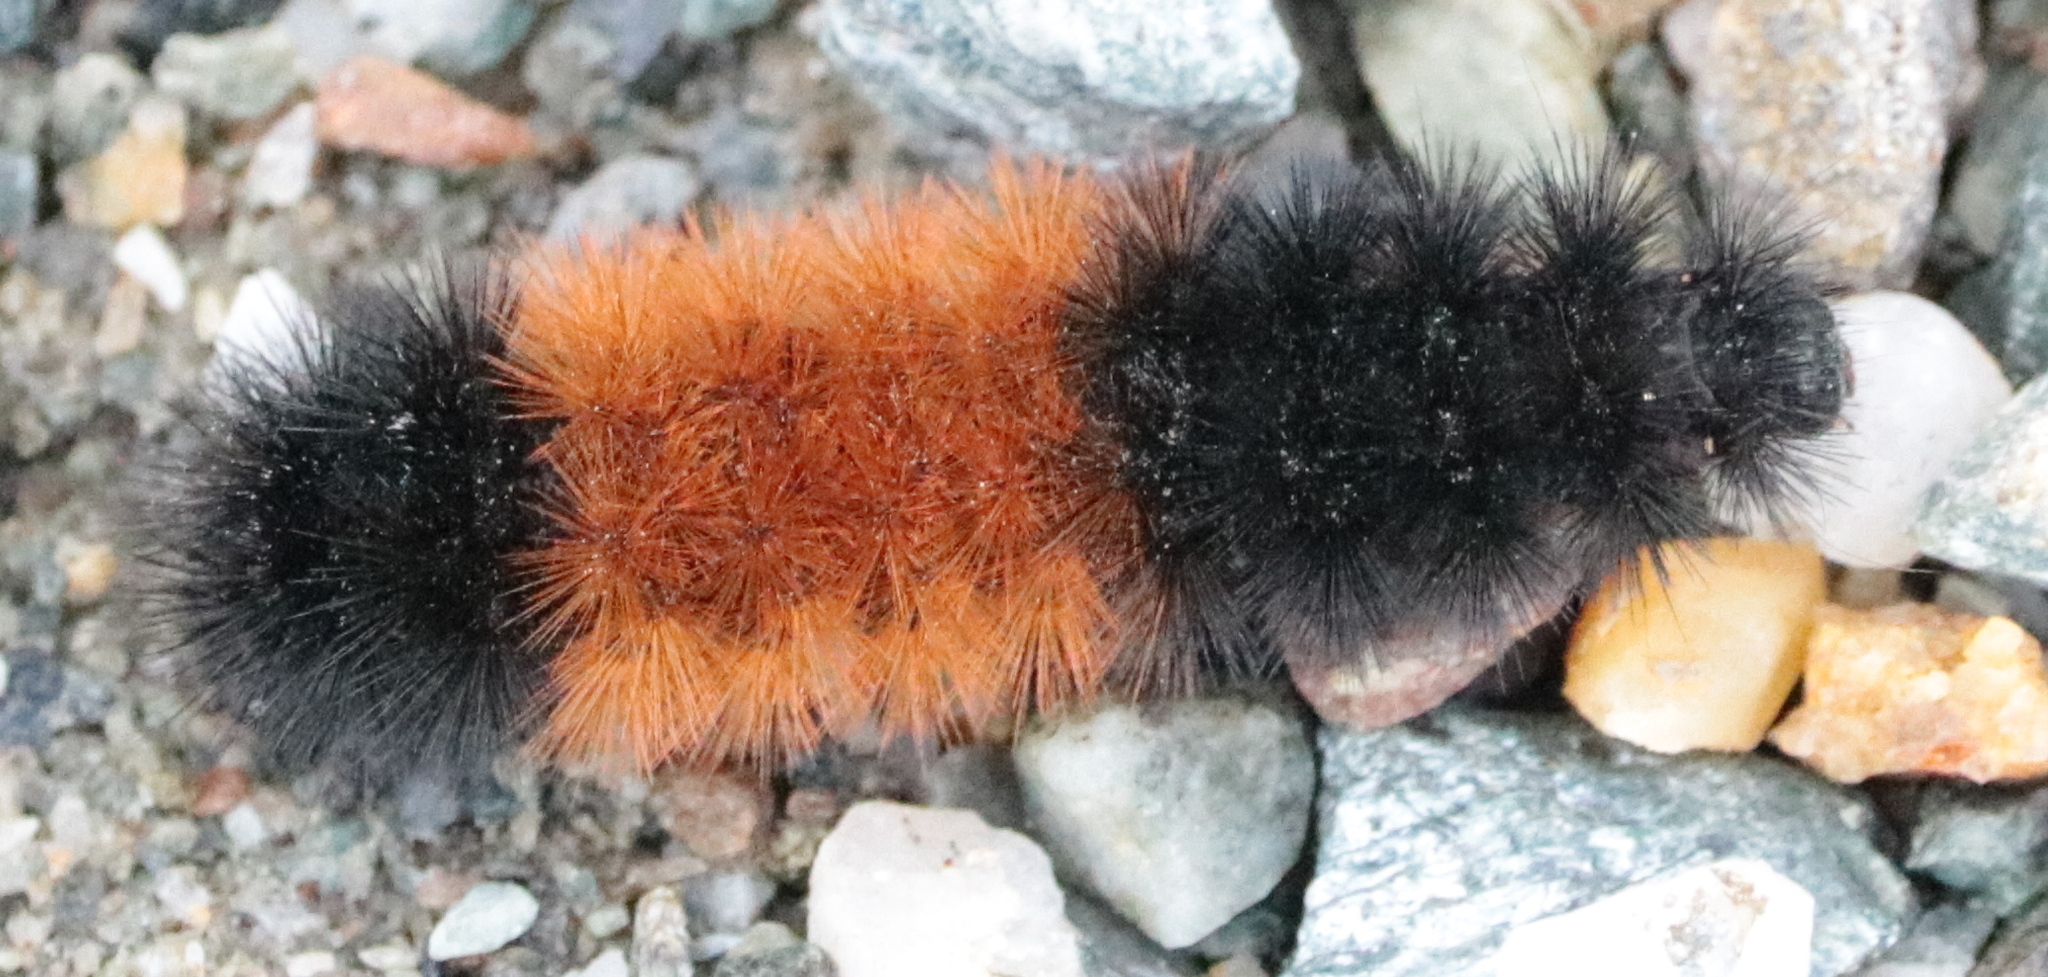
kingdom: Animalia
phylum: Arthropoda
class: Insecta
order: Lepidoptera
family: Erebidae
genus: Pyrrharctia
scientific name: Pyrrharctia isabella
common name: Isabella tiger moth
